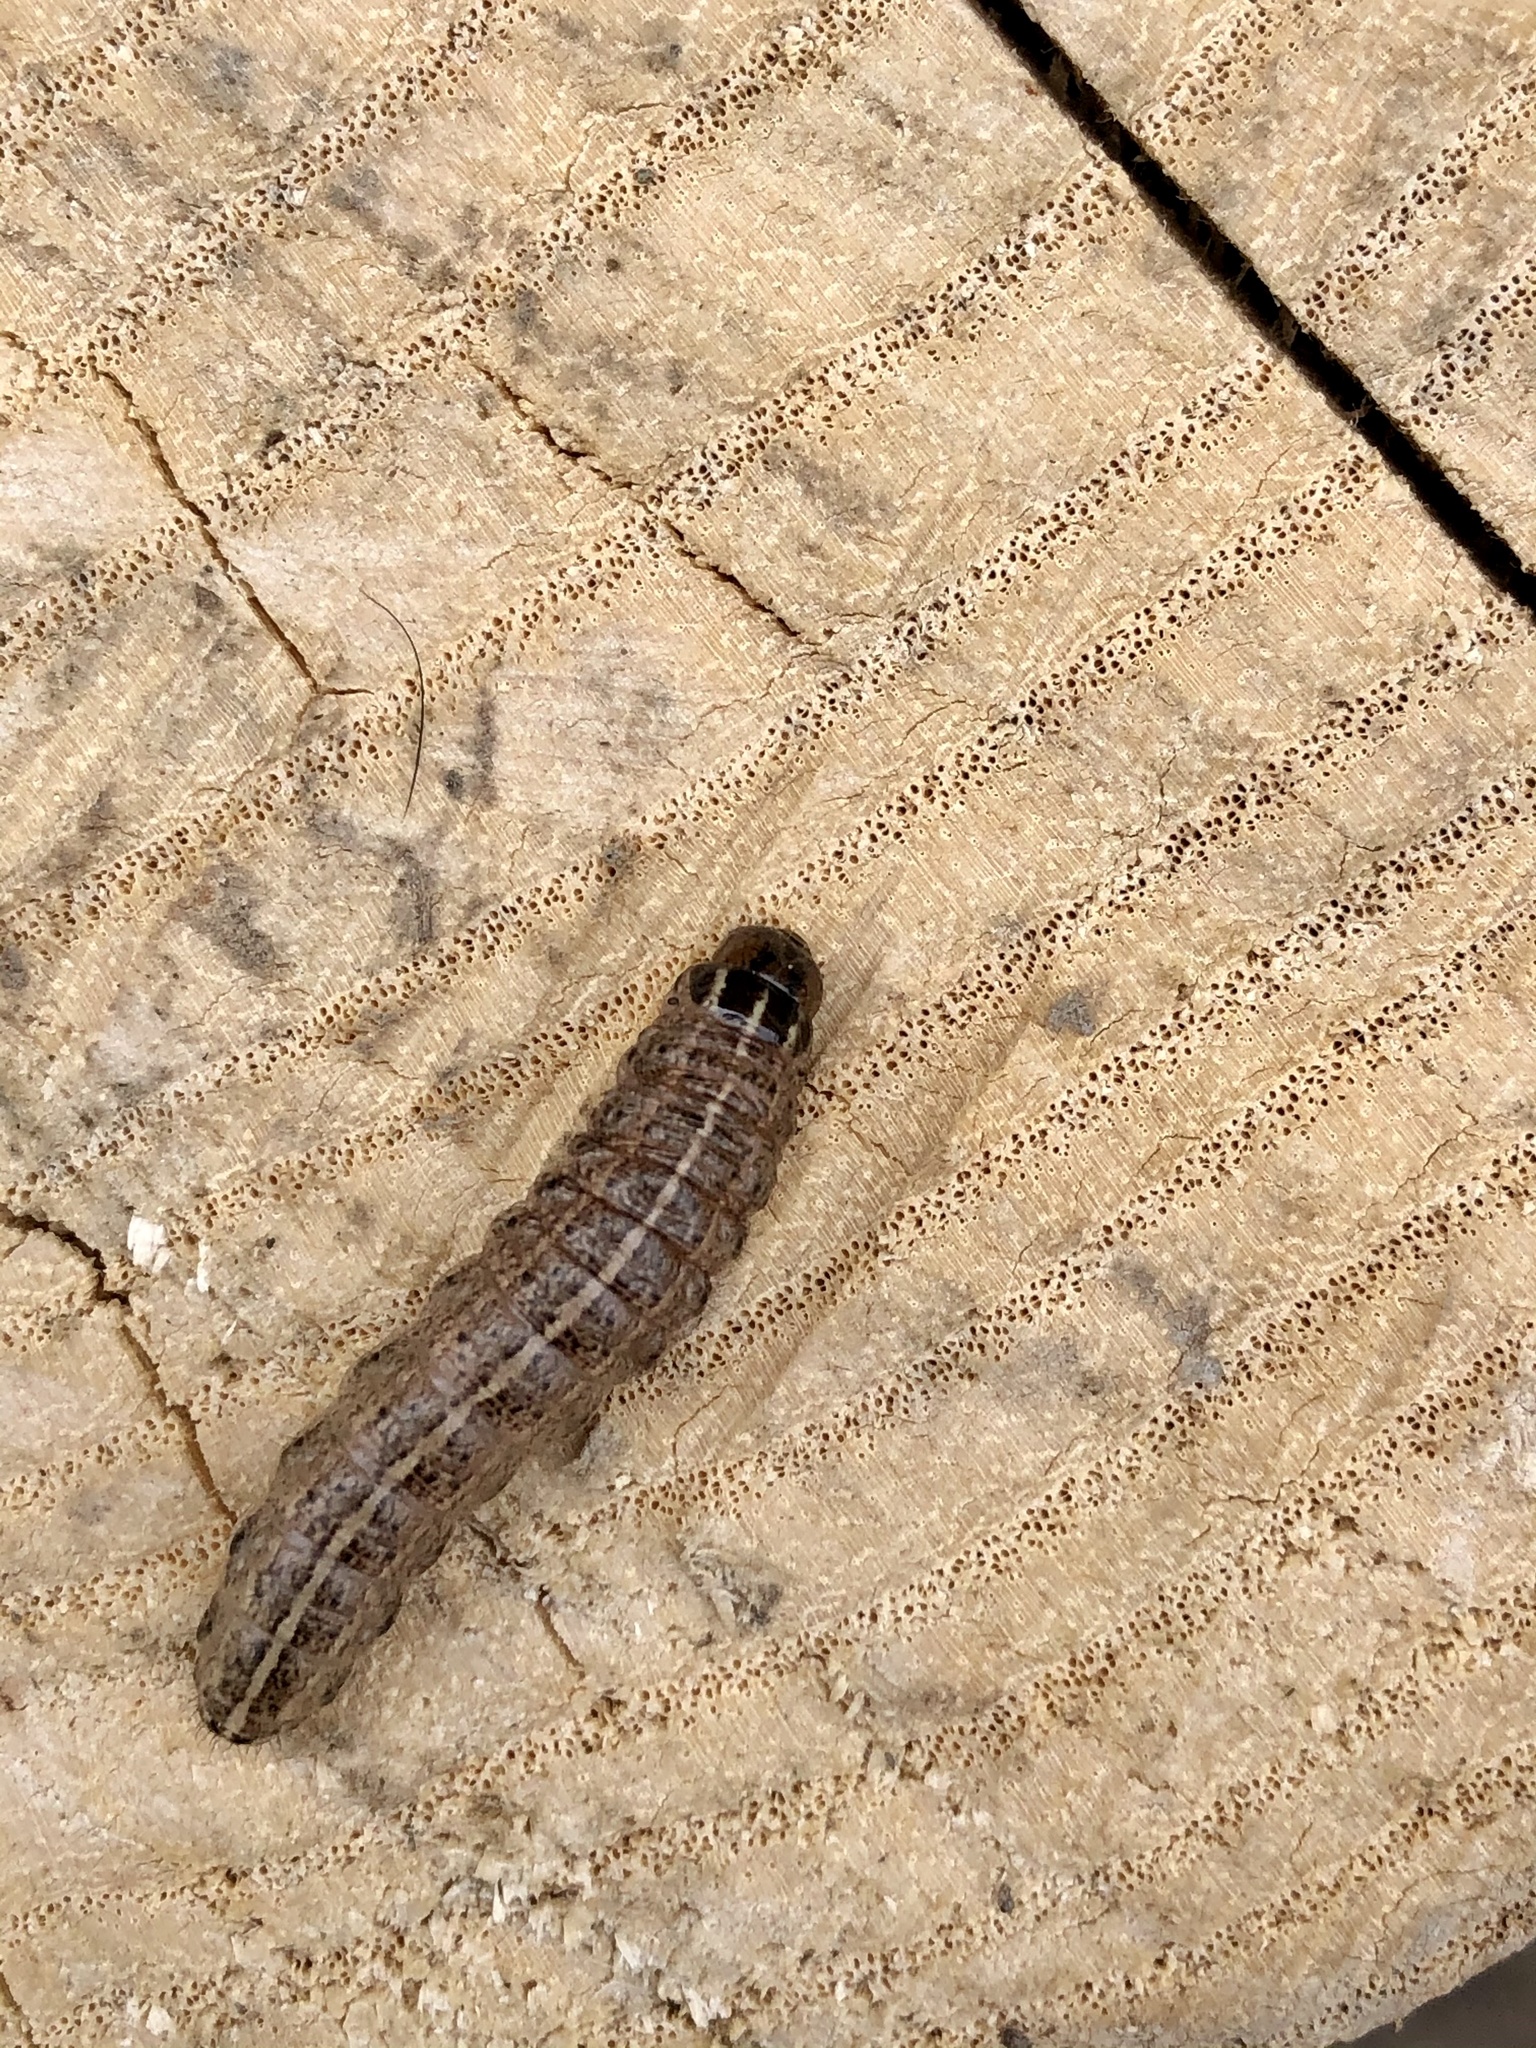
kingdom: Animalia
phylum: Arthropoda
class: Insecta
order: Lepidoptera
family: Noctuidae
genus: Nephelodes
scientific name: Nephelodes minians
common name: Bronzed cutworm
